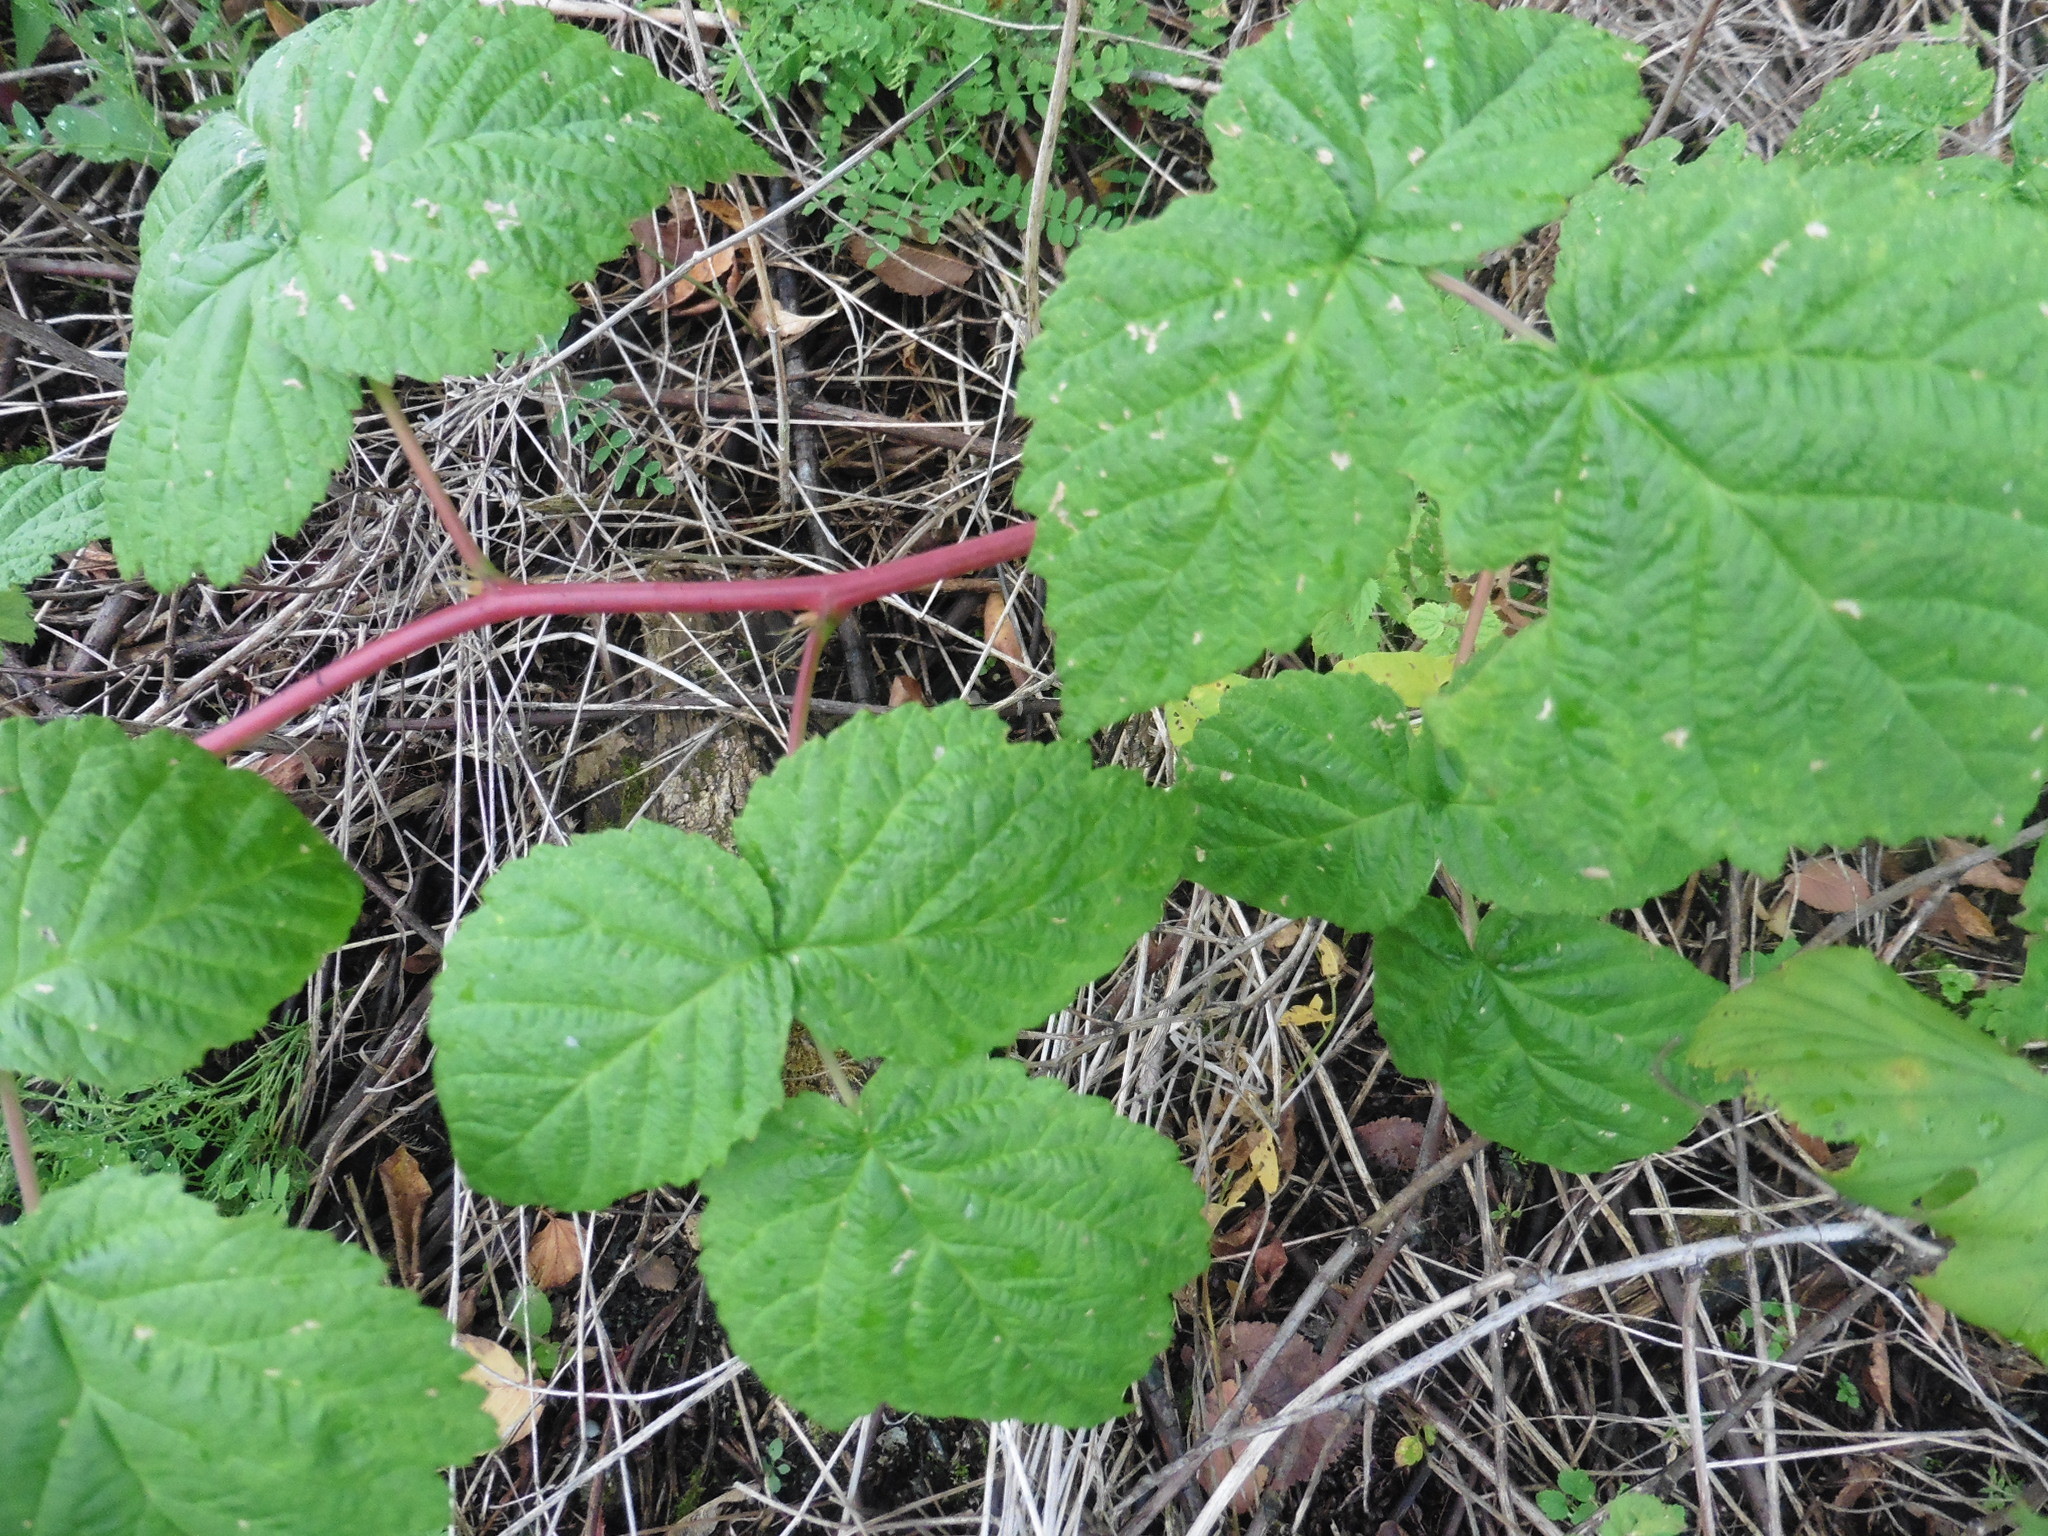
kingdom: Plantae
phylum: Tracheophyta
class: Magnoliopsida
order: Rosales
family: Rosaceae
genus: Rubus
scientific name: Rubus idaeus
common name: Raspberry
